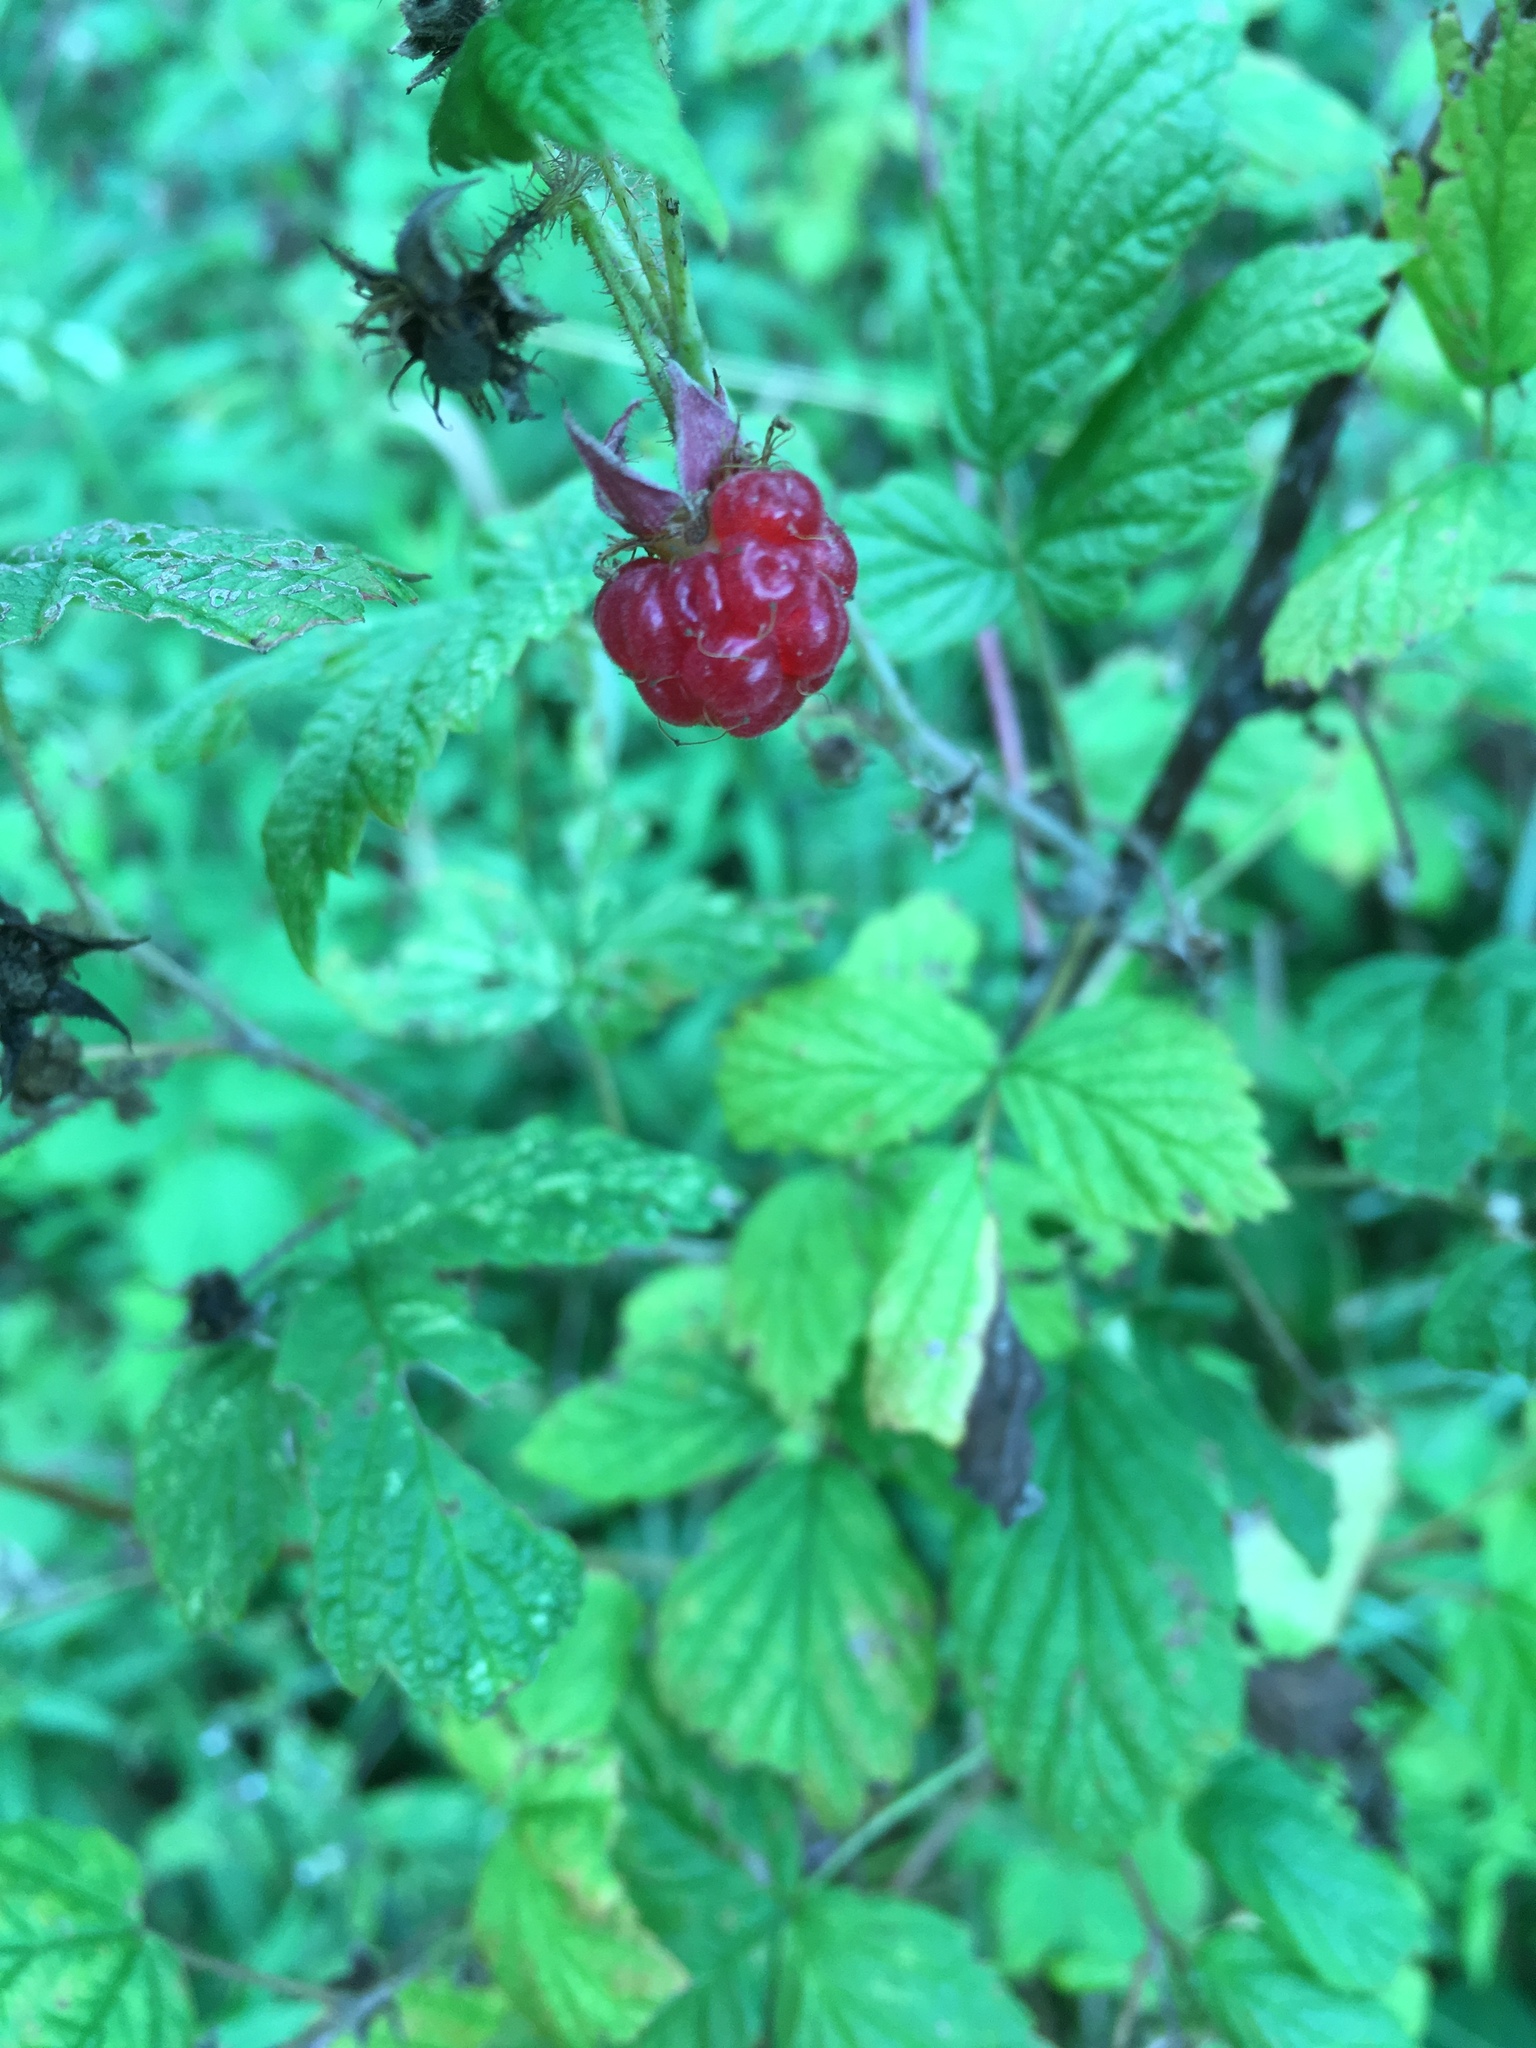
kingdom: Plantae
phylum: Tracheophyta
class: Magnoliopsida
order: Rosales
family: Rosaceae
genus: Rubus
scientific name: Rubus idaeus
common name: Raspberry
